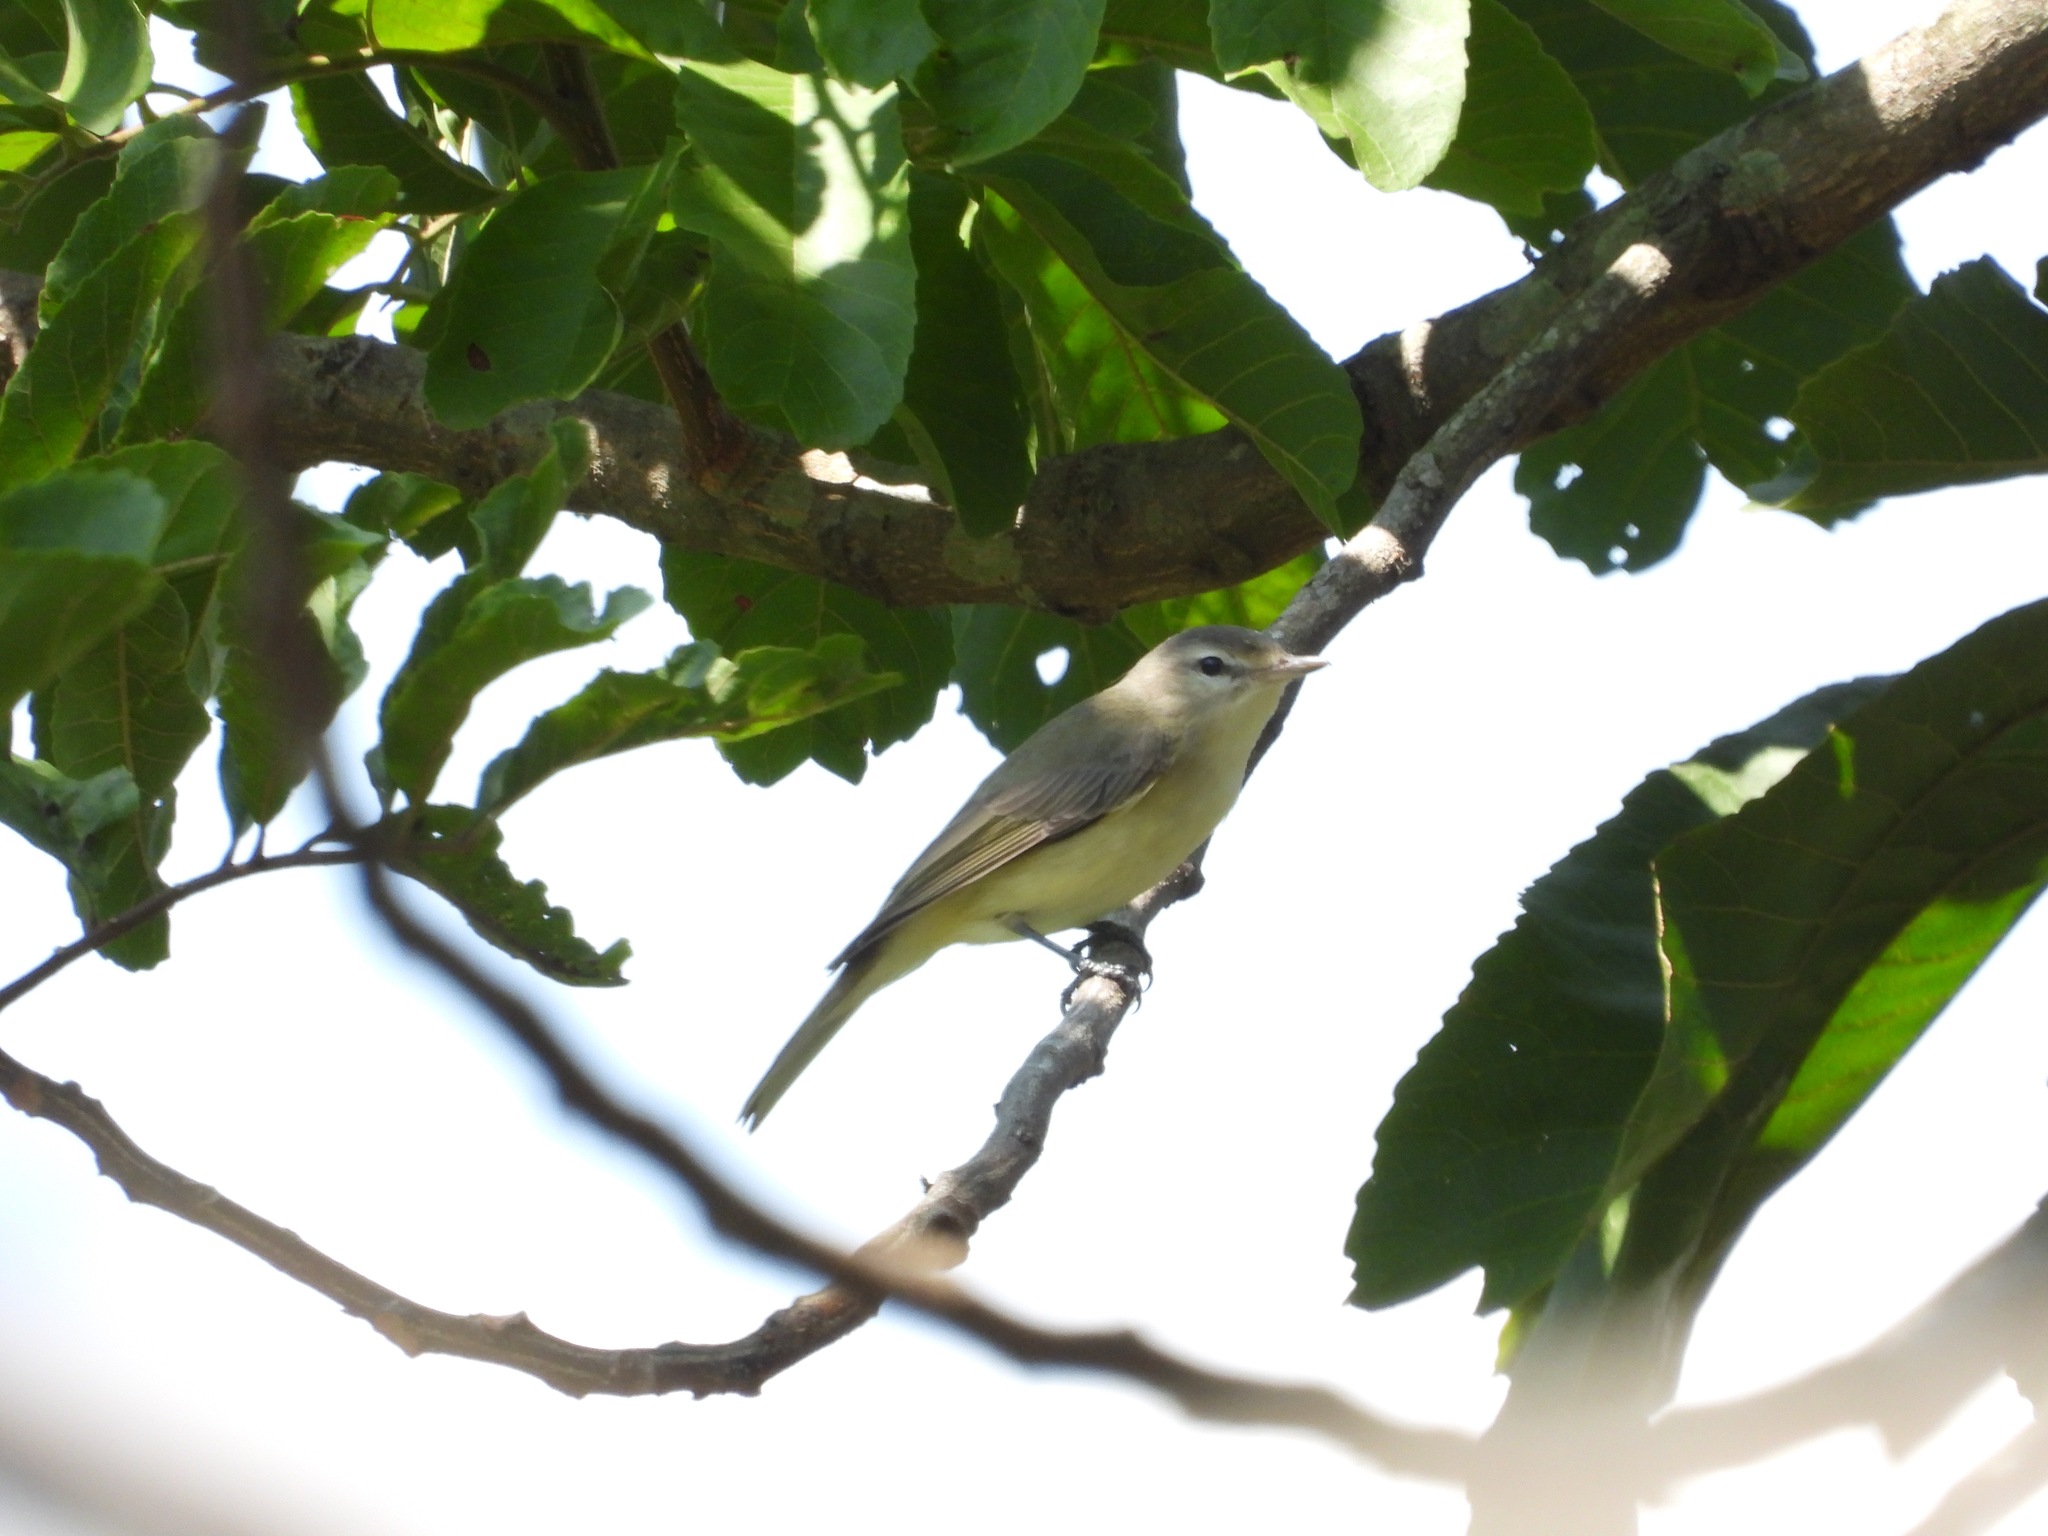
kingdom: Animalia
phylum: Chordata
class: Aves
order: Passeriformes
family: Vireonidae
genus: Vireo
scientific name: Vireo gilvus
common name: Warbling vireo
